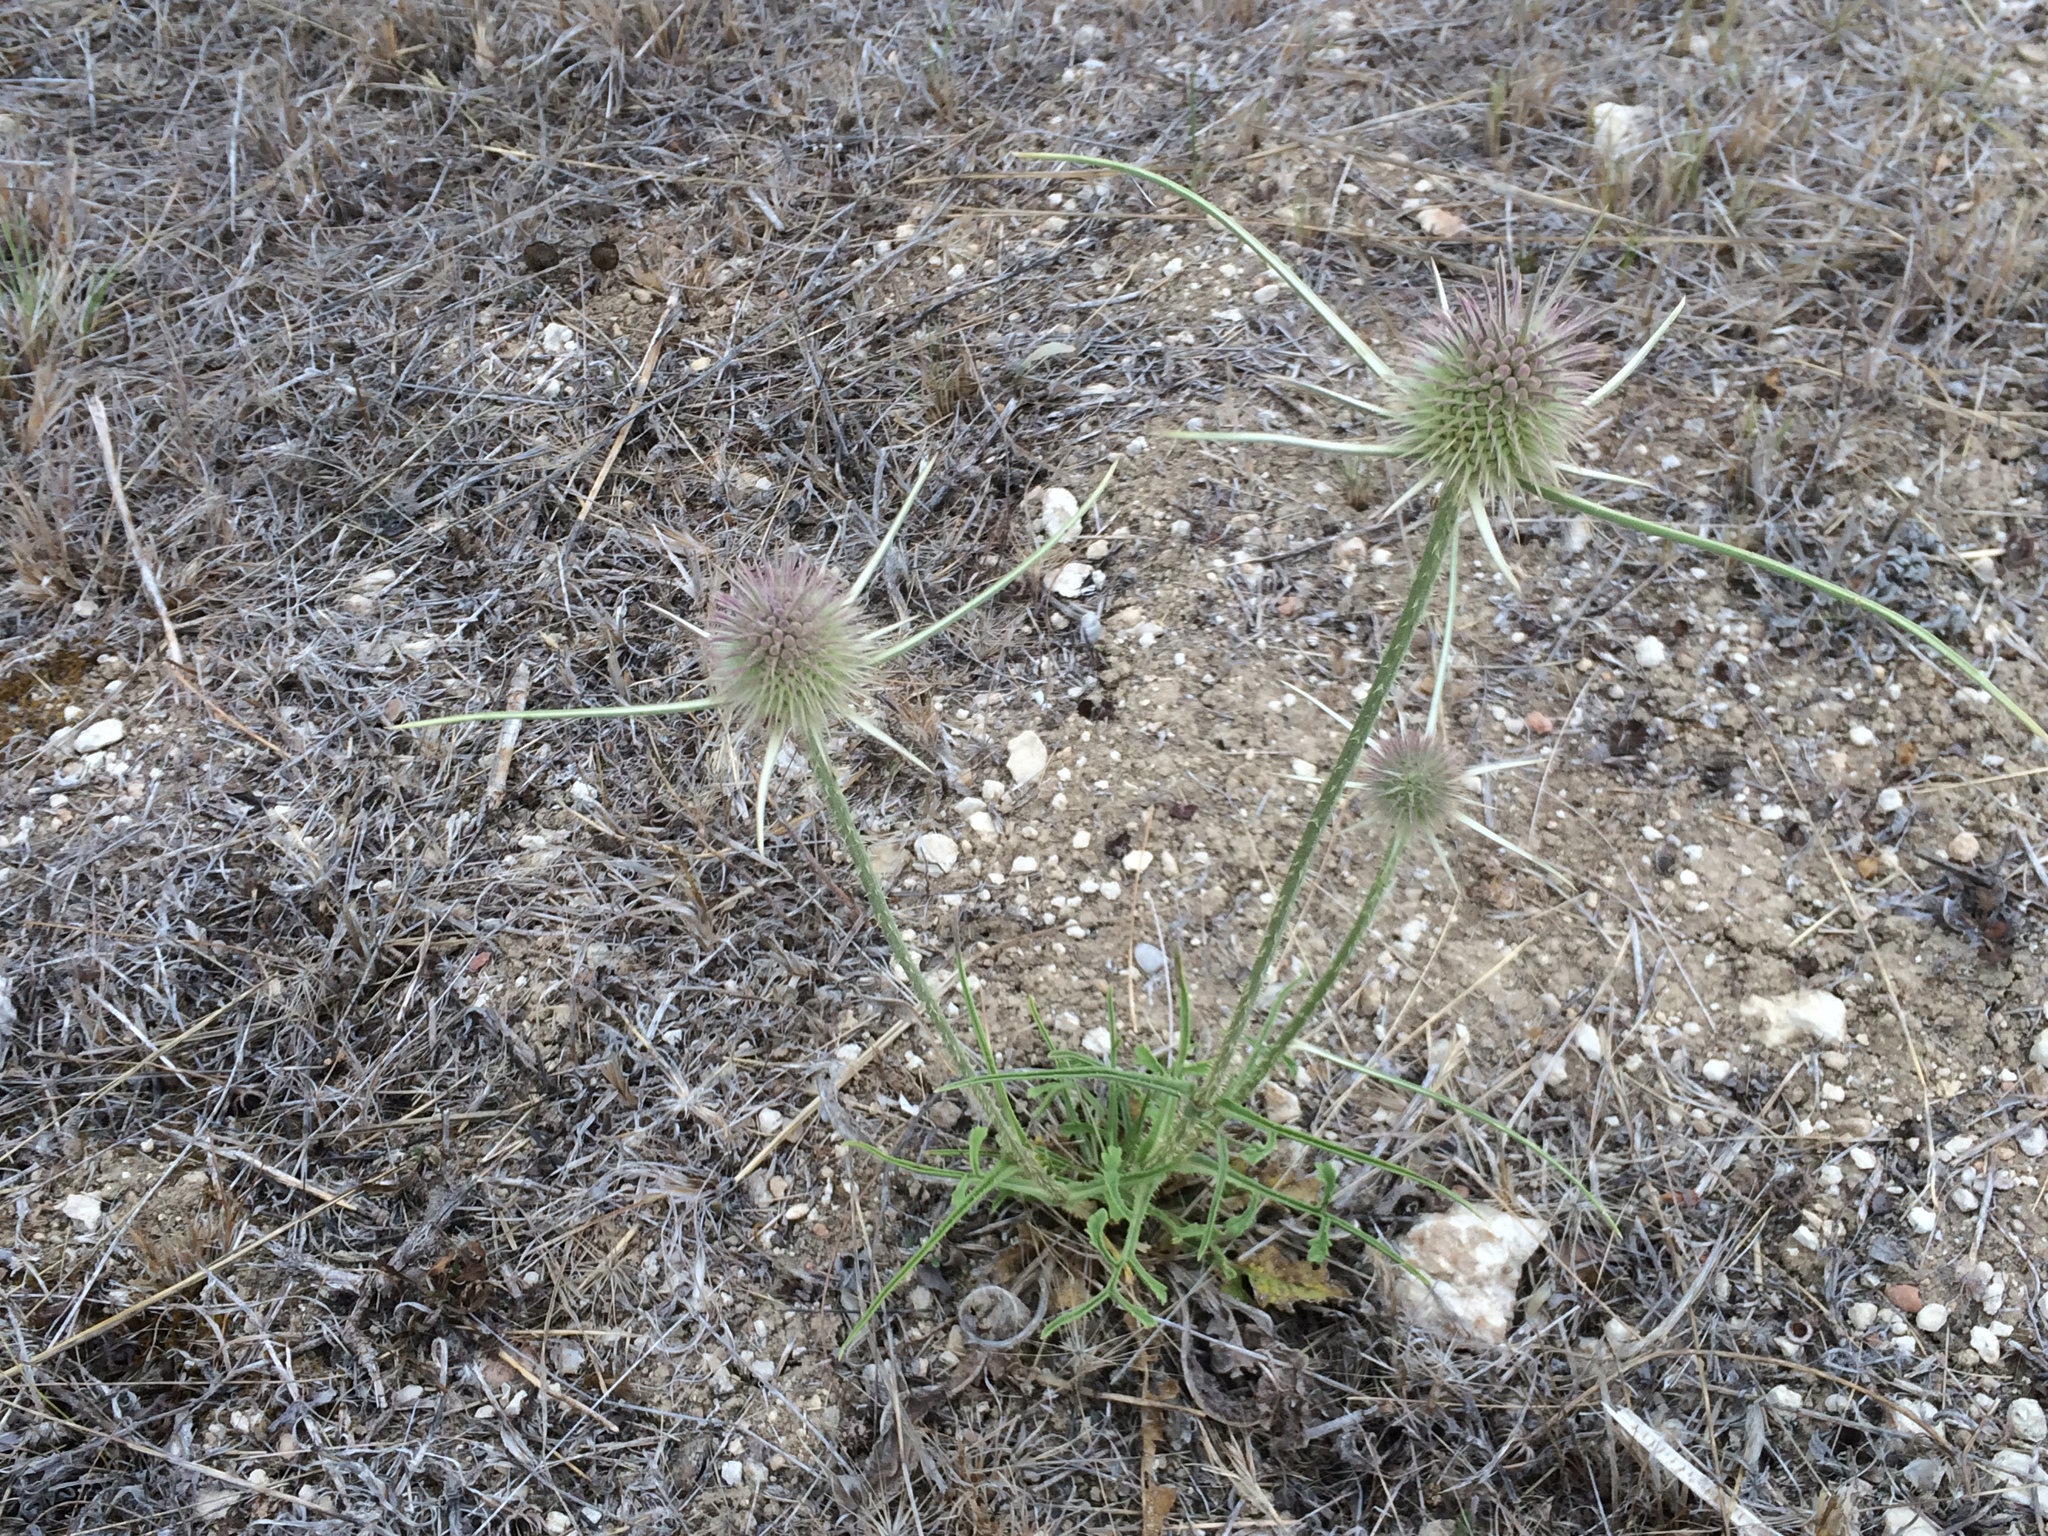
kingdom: Plantae
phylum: Tracheophyta
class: Magnoliopsida
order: Dipsacales
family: Caprifoliaceae
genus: Dipsacus
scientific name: Dipsacus comosus
